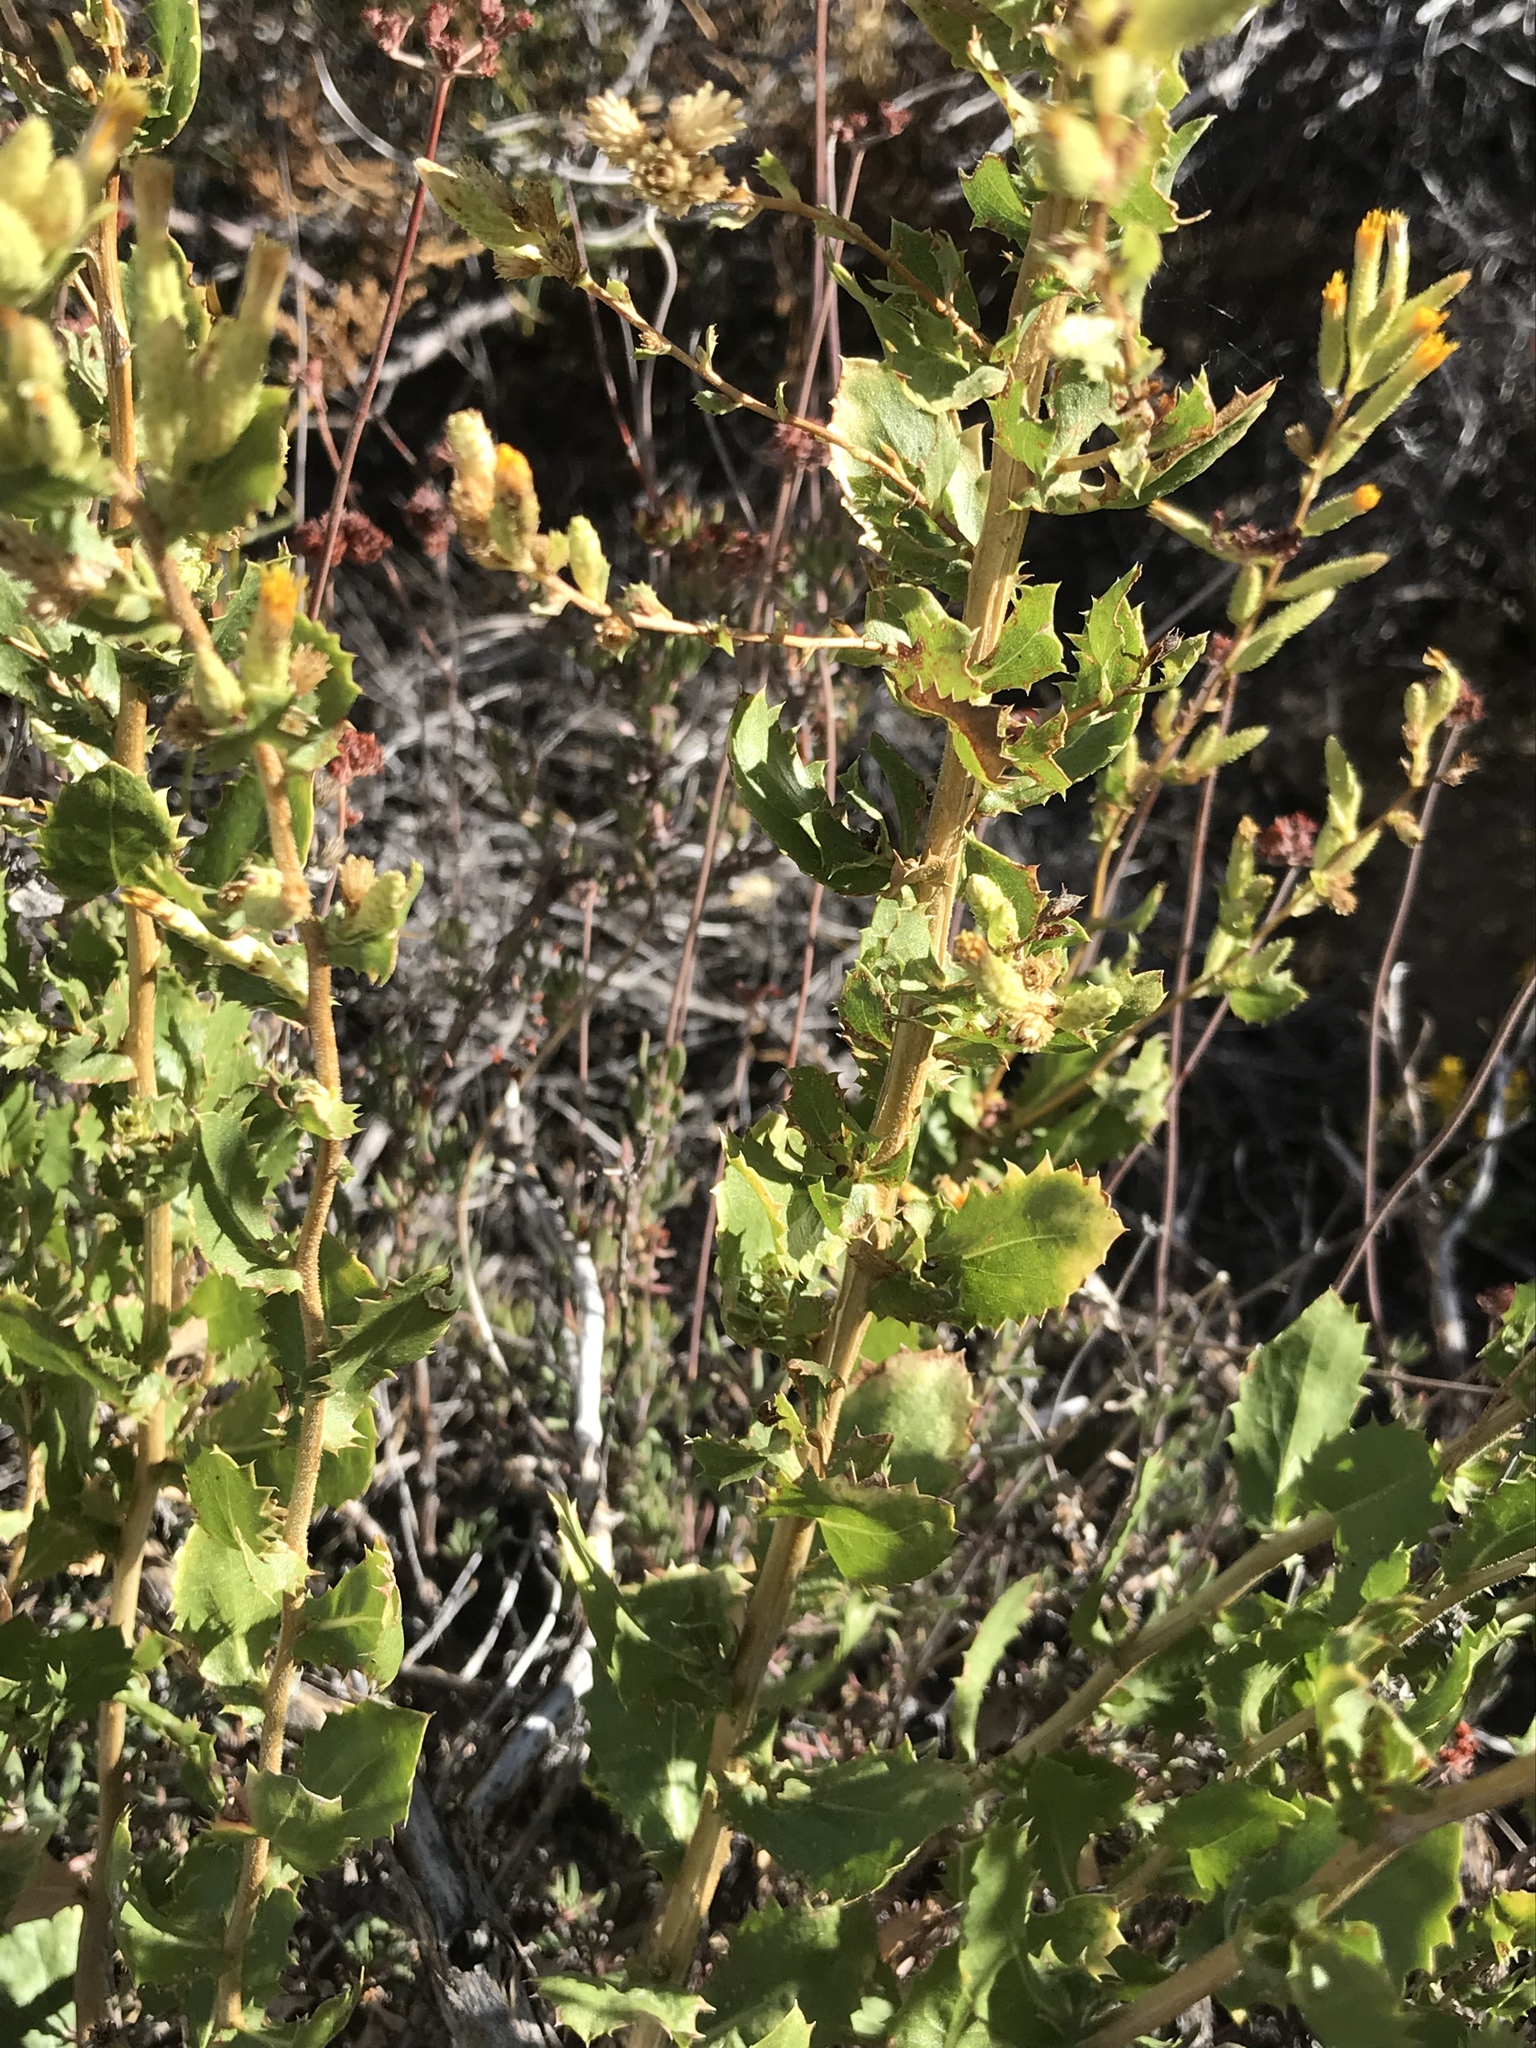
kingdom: Plantae
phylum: Tracheophyta
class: Magnoliopsida
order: Asterales
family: Asteraceae
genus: Hazardia
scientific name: Hazardia stenolepis
